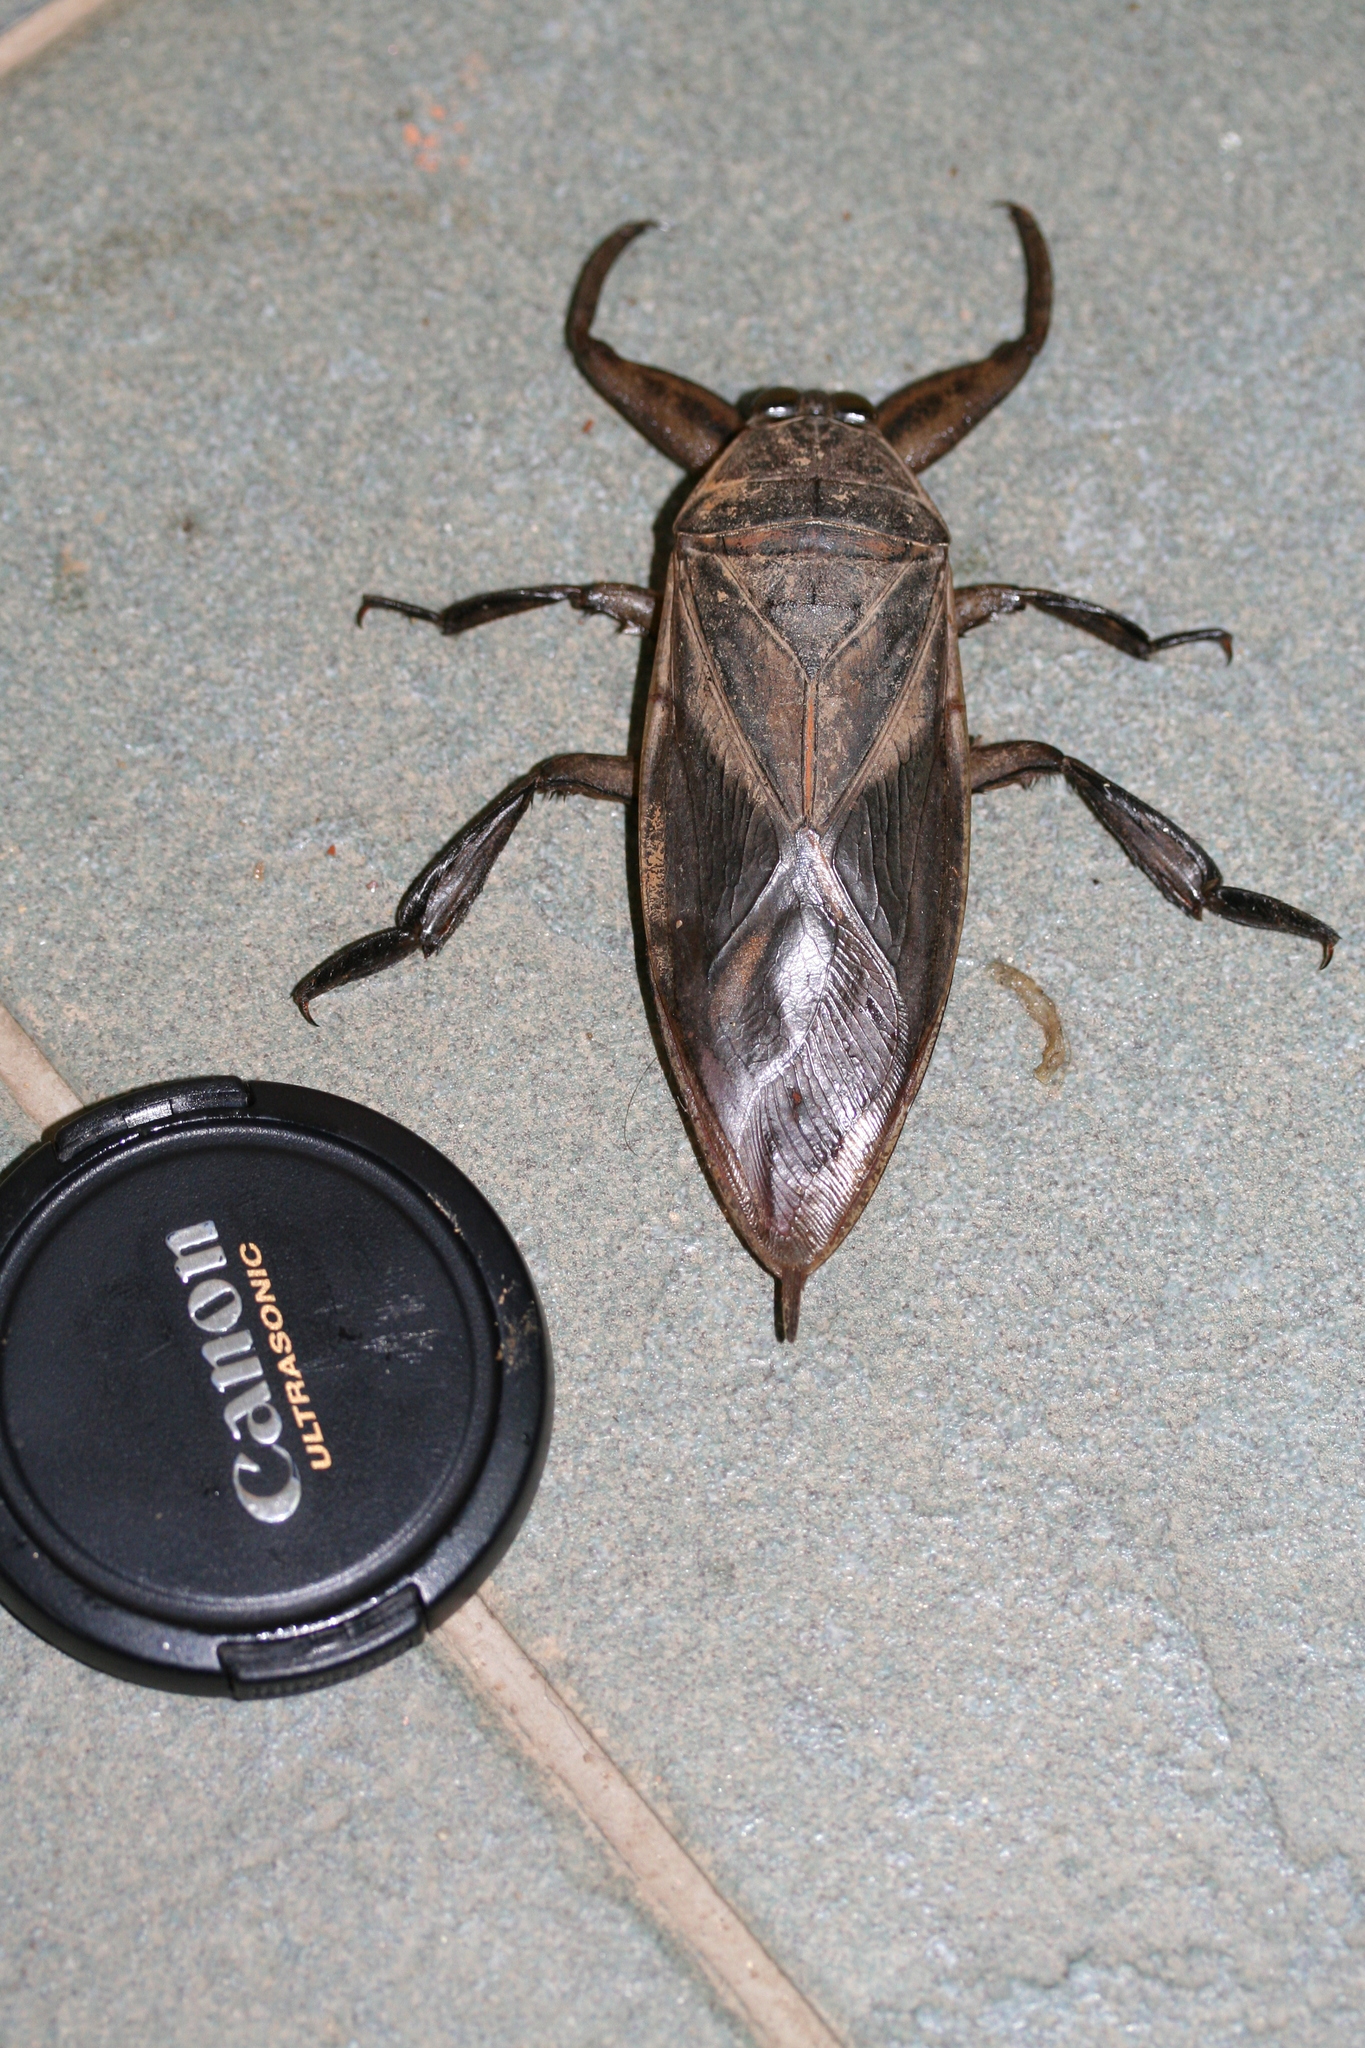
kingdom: Animalia
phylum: Arthropoda
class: Insecta
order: Hemiptera
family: Belostomatidae
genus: Lethocerus
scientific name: Lethocerus oculatus
